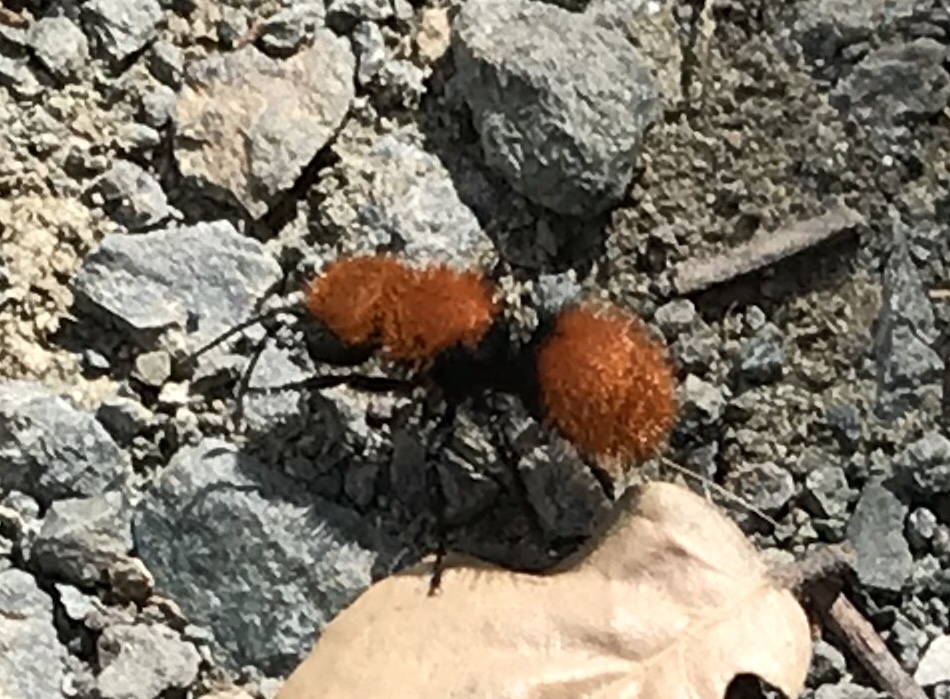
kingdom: Animalia
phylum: Arthropoda
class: Insecta
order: Hymenoptera
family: Mutillidae
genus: Dasymutilla
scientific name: Dasymutilla
